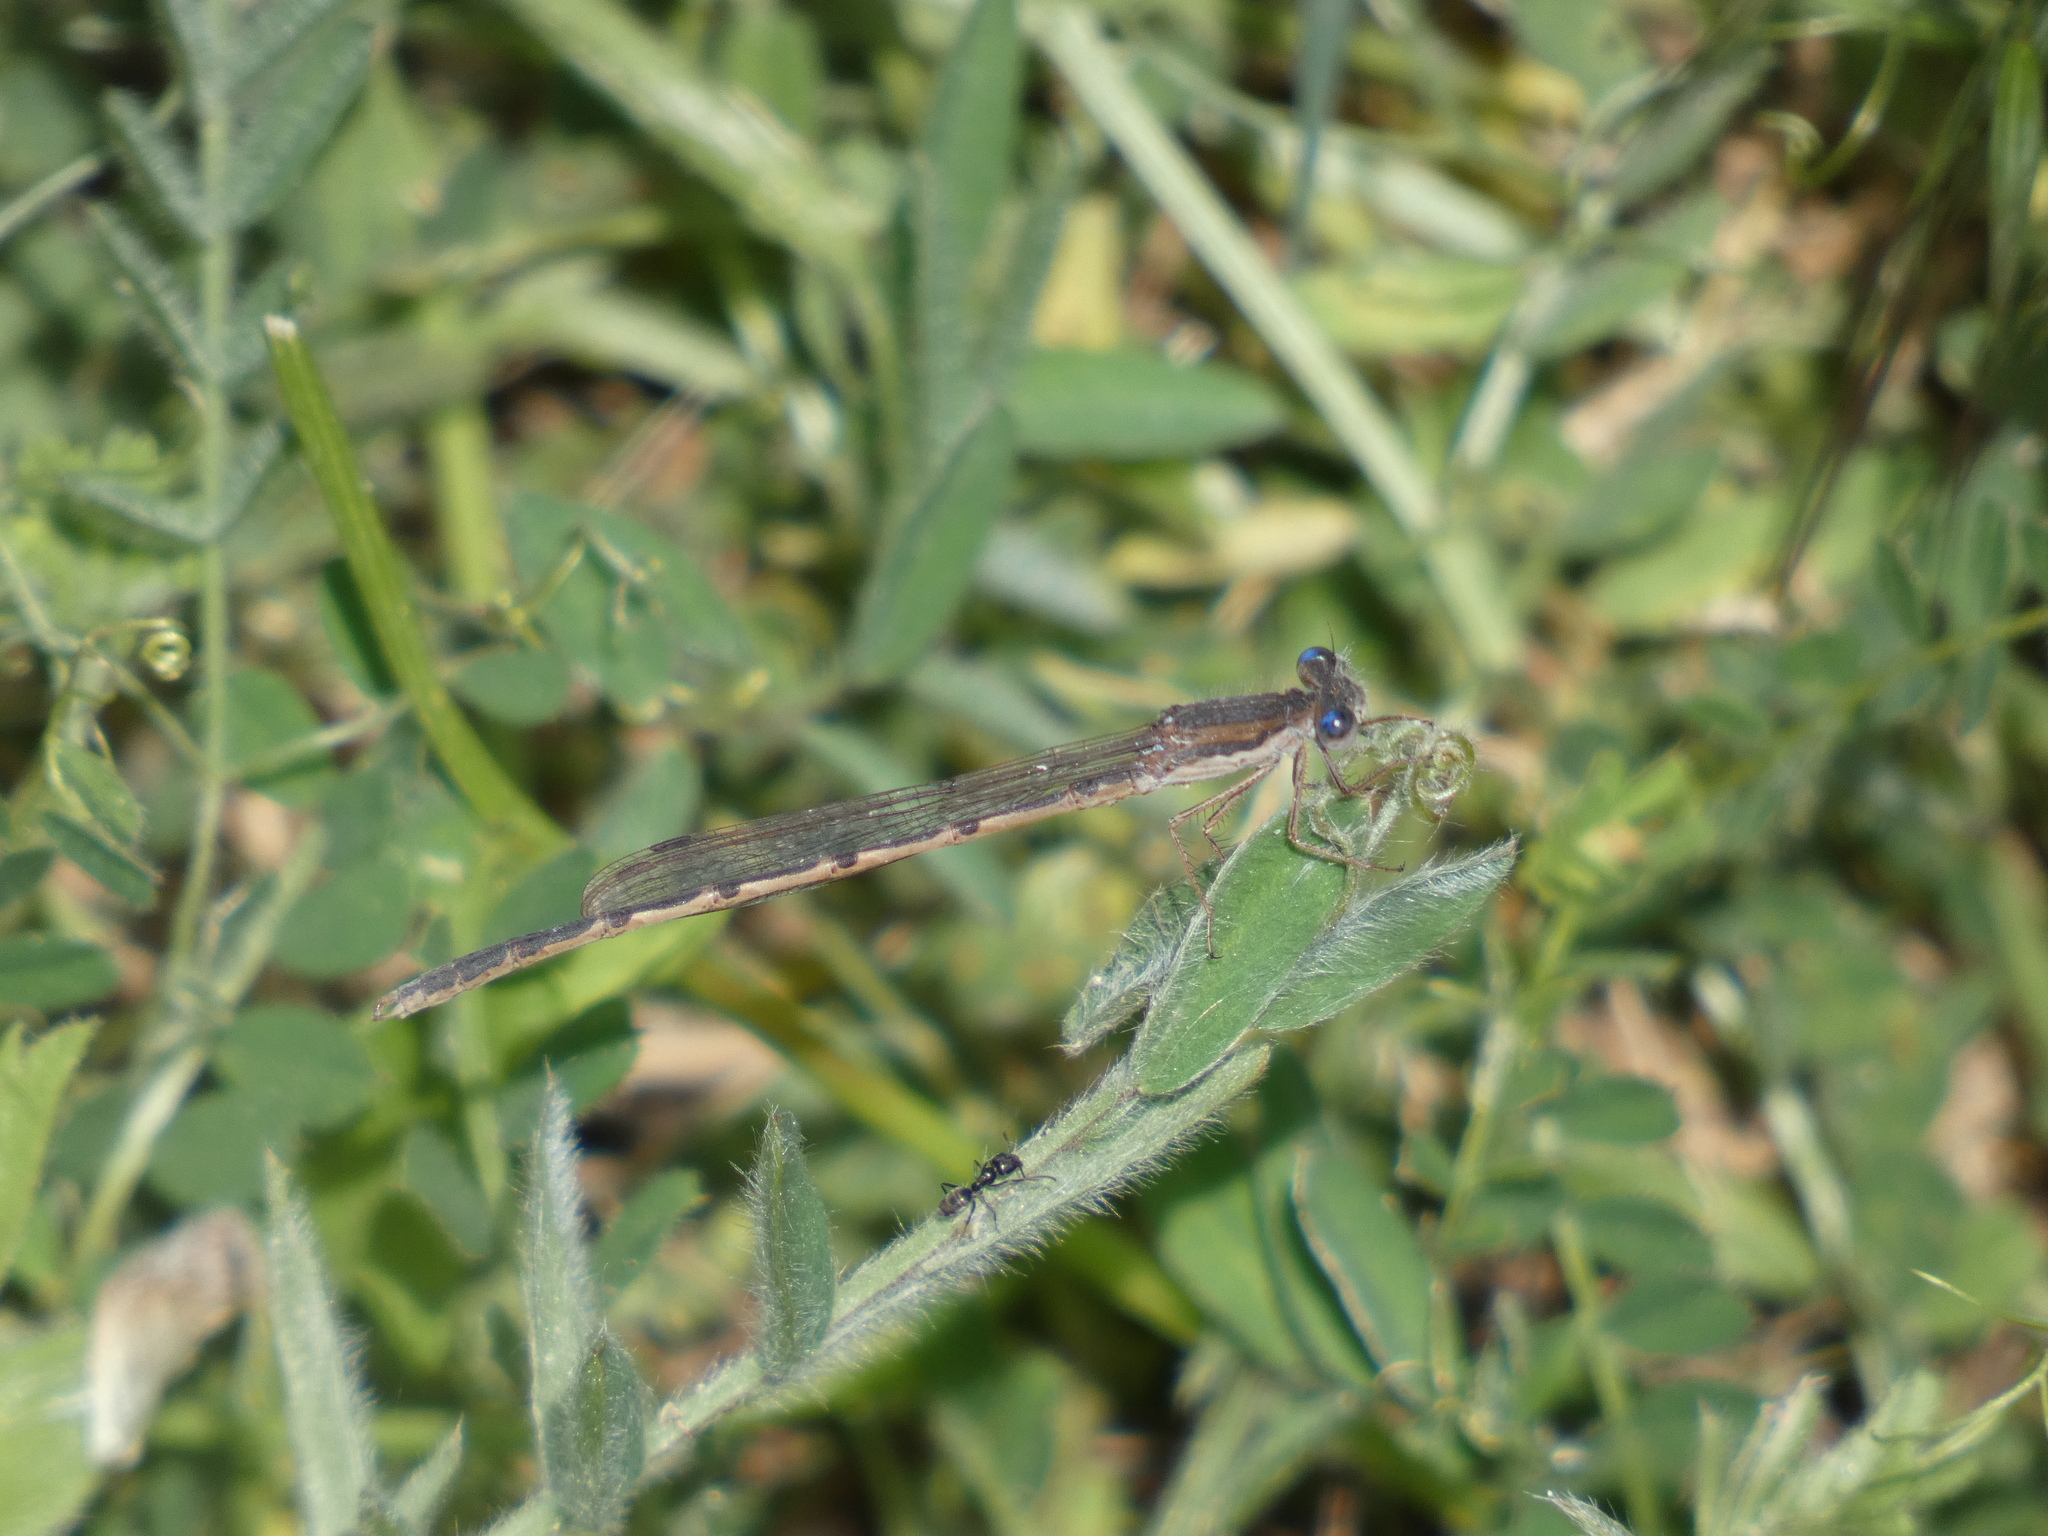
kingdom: Animalia
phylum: Arthropoda
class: Insecta
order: Odonata
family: Lestidae
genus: Sympecma
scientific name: Sympecma fusca
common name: Common winter damsel
